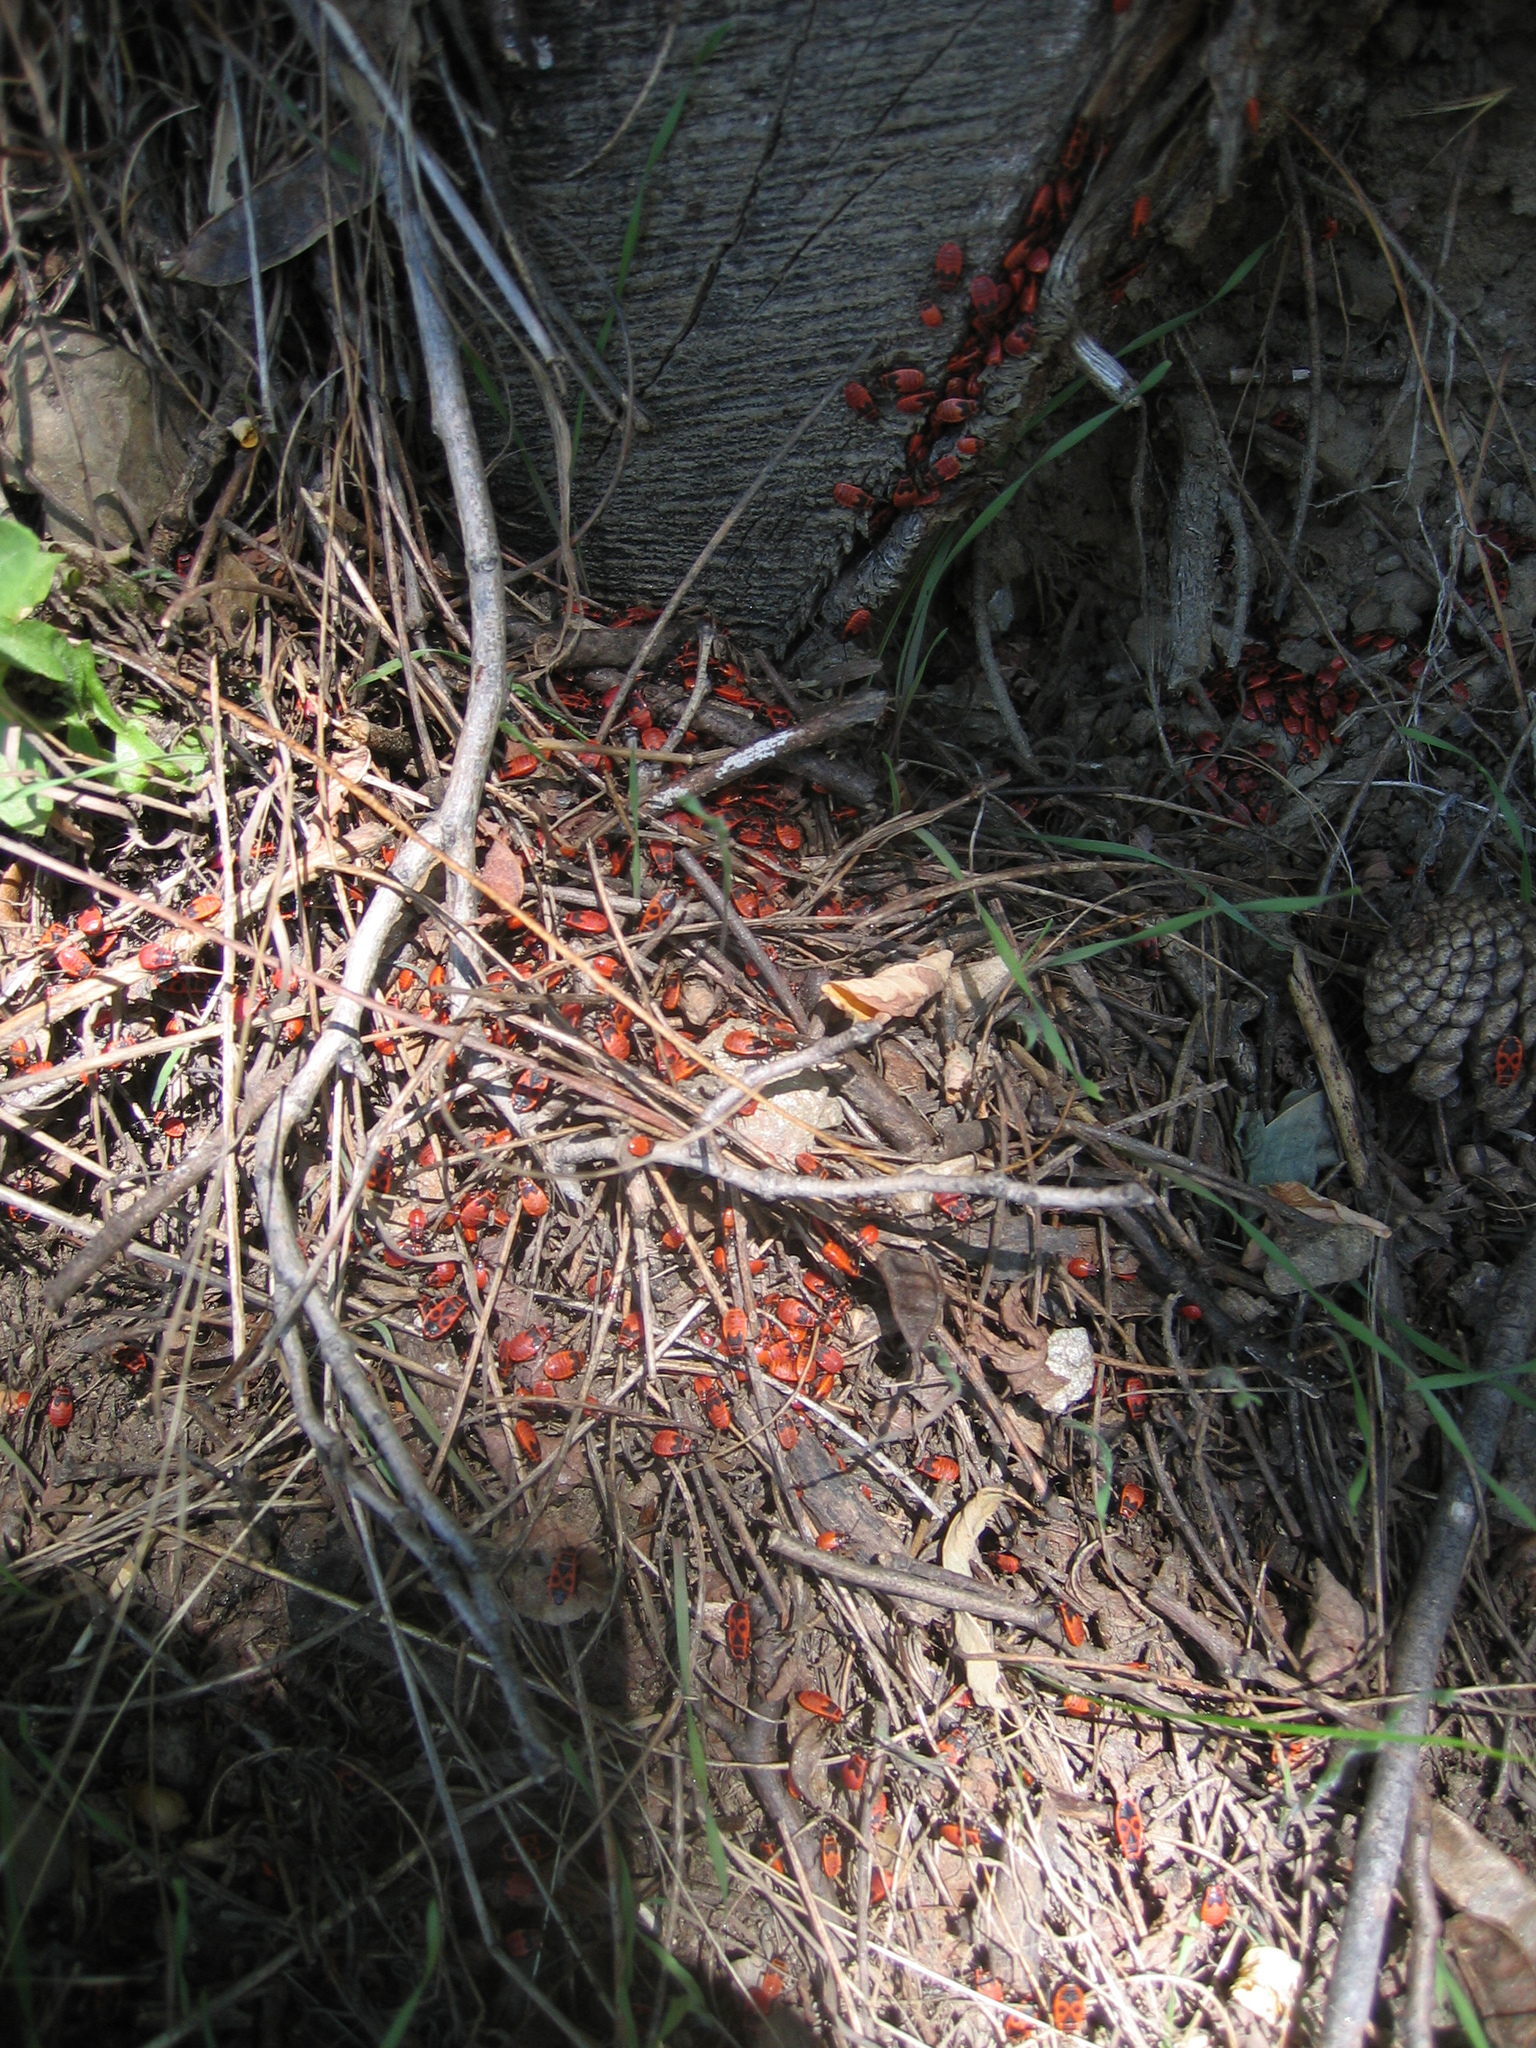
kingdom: Animalia
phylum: Arthropoda
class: Insecta
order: Hemiptera
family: Pyrrhocoridae
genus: Pyrrhocoris
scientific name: Pyrrhocoris apterus
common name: Firebug
